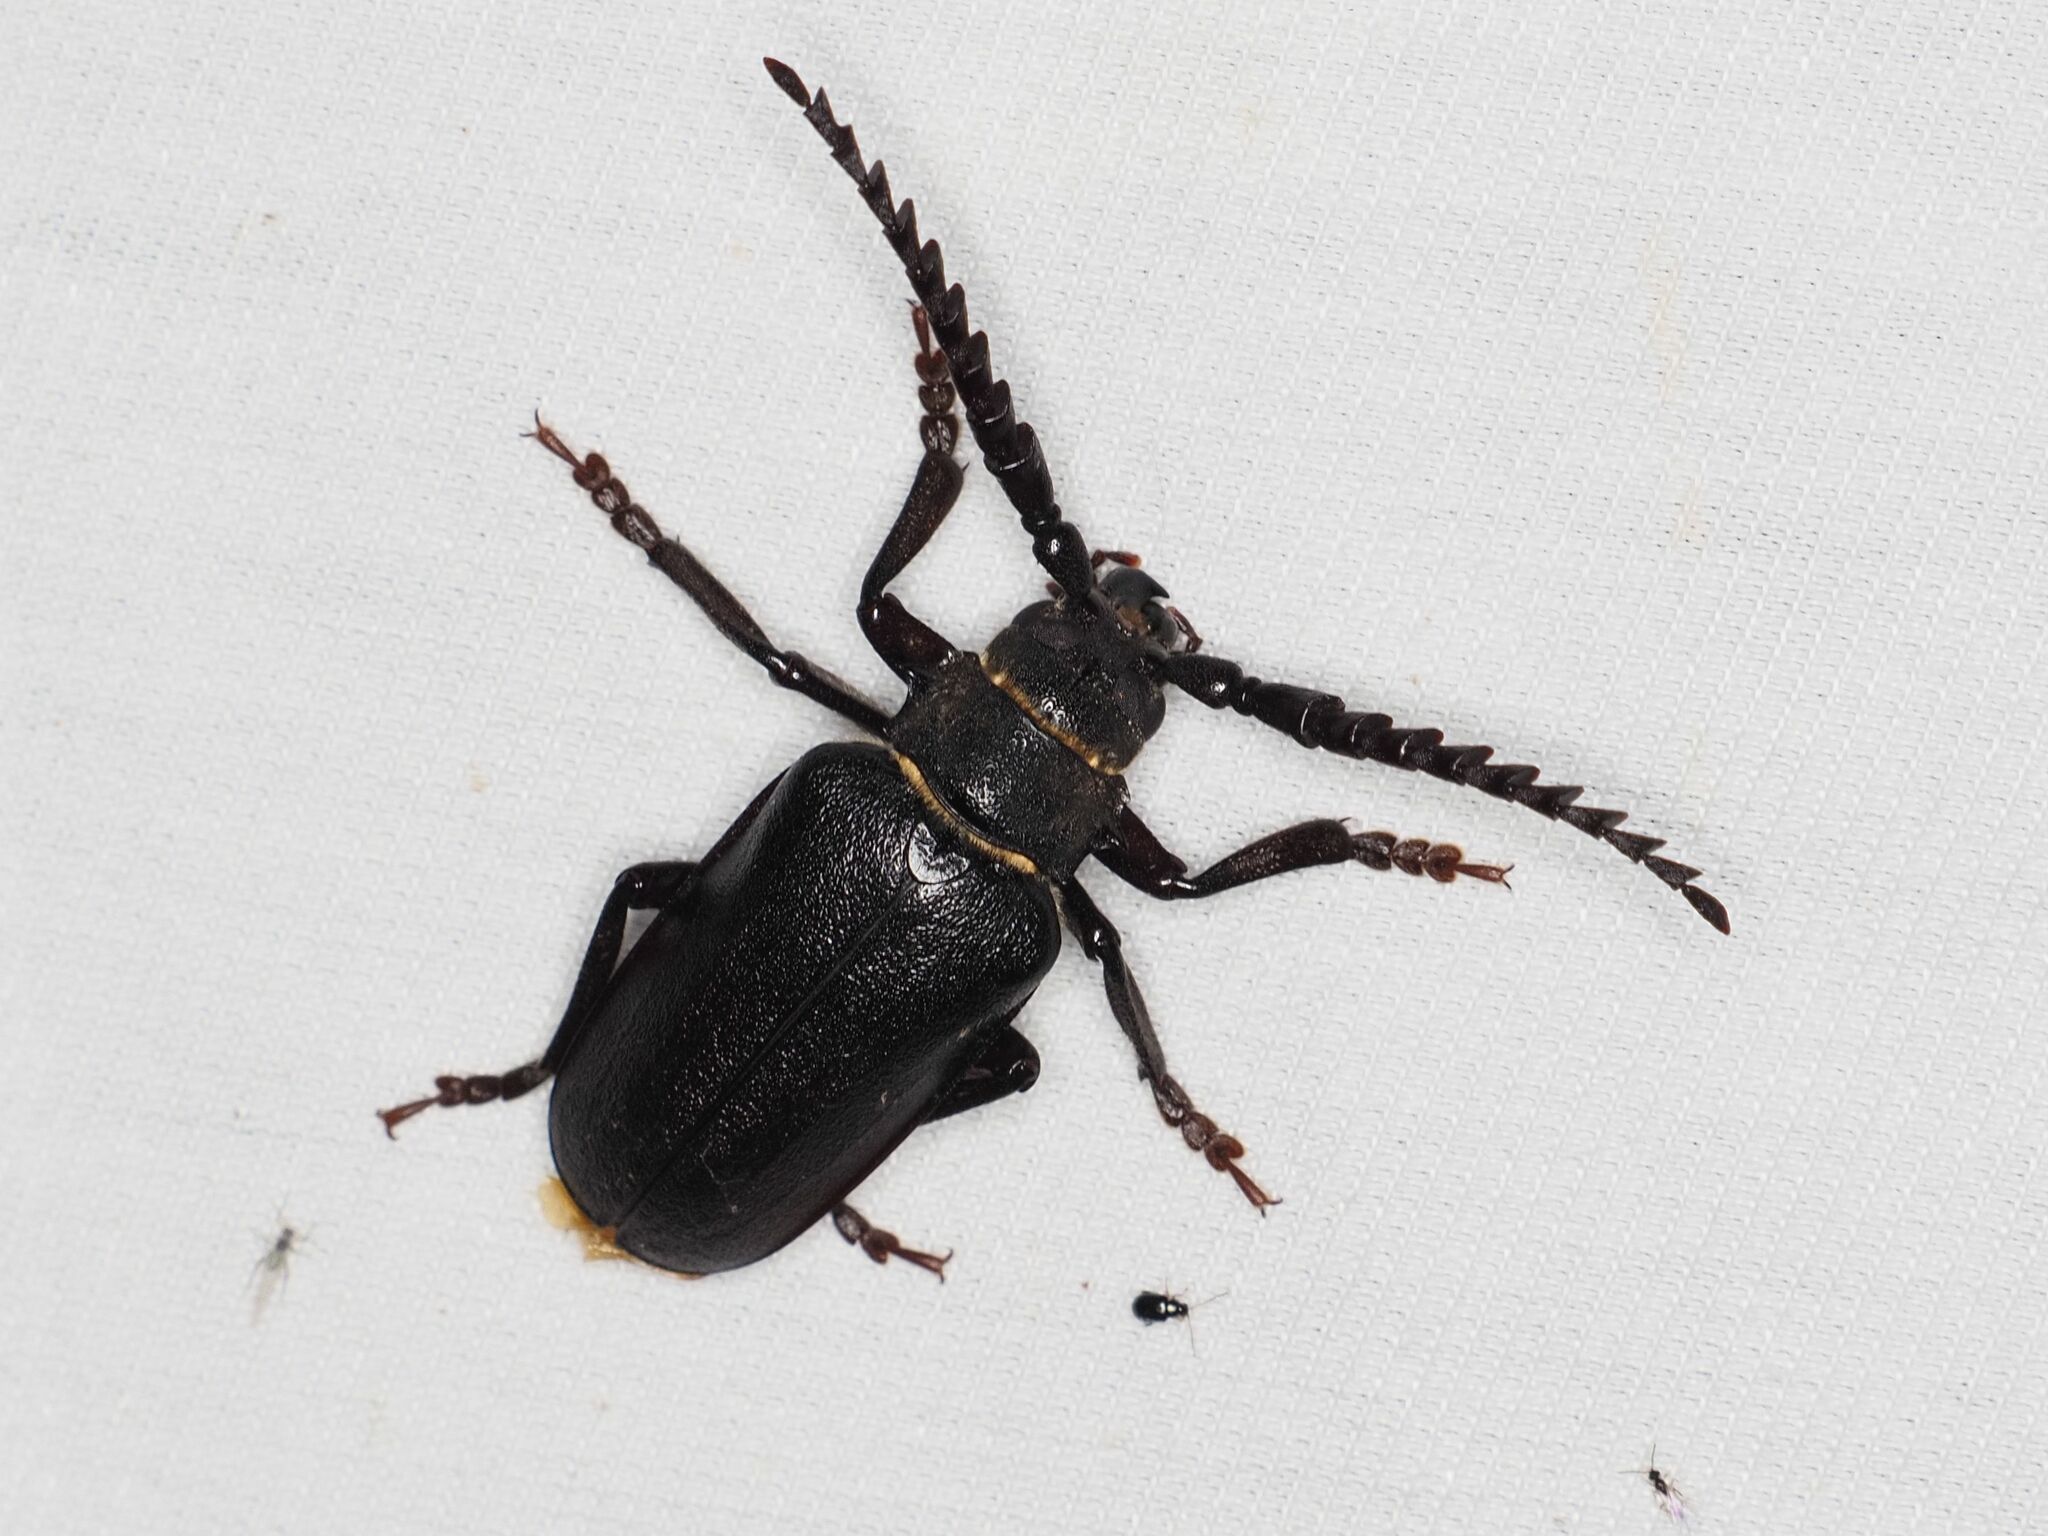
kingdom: Animalia
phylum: Arthropoda
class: Insecta
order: Coleoptera
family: Cerambycidae
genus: Prionus
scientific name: Prionus coriarius
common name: Tanner beetle
